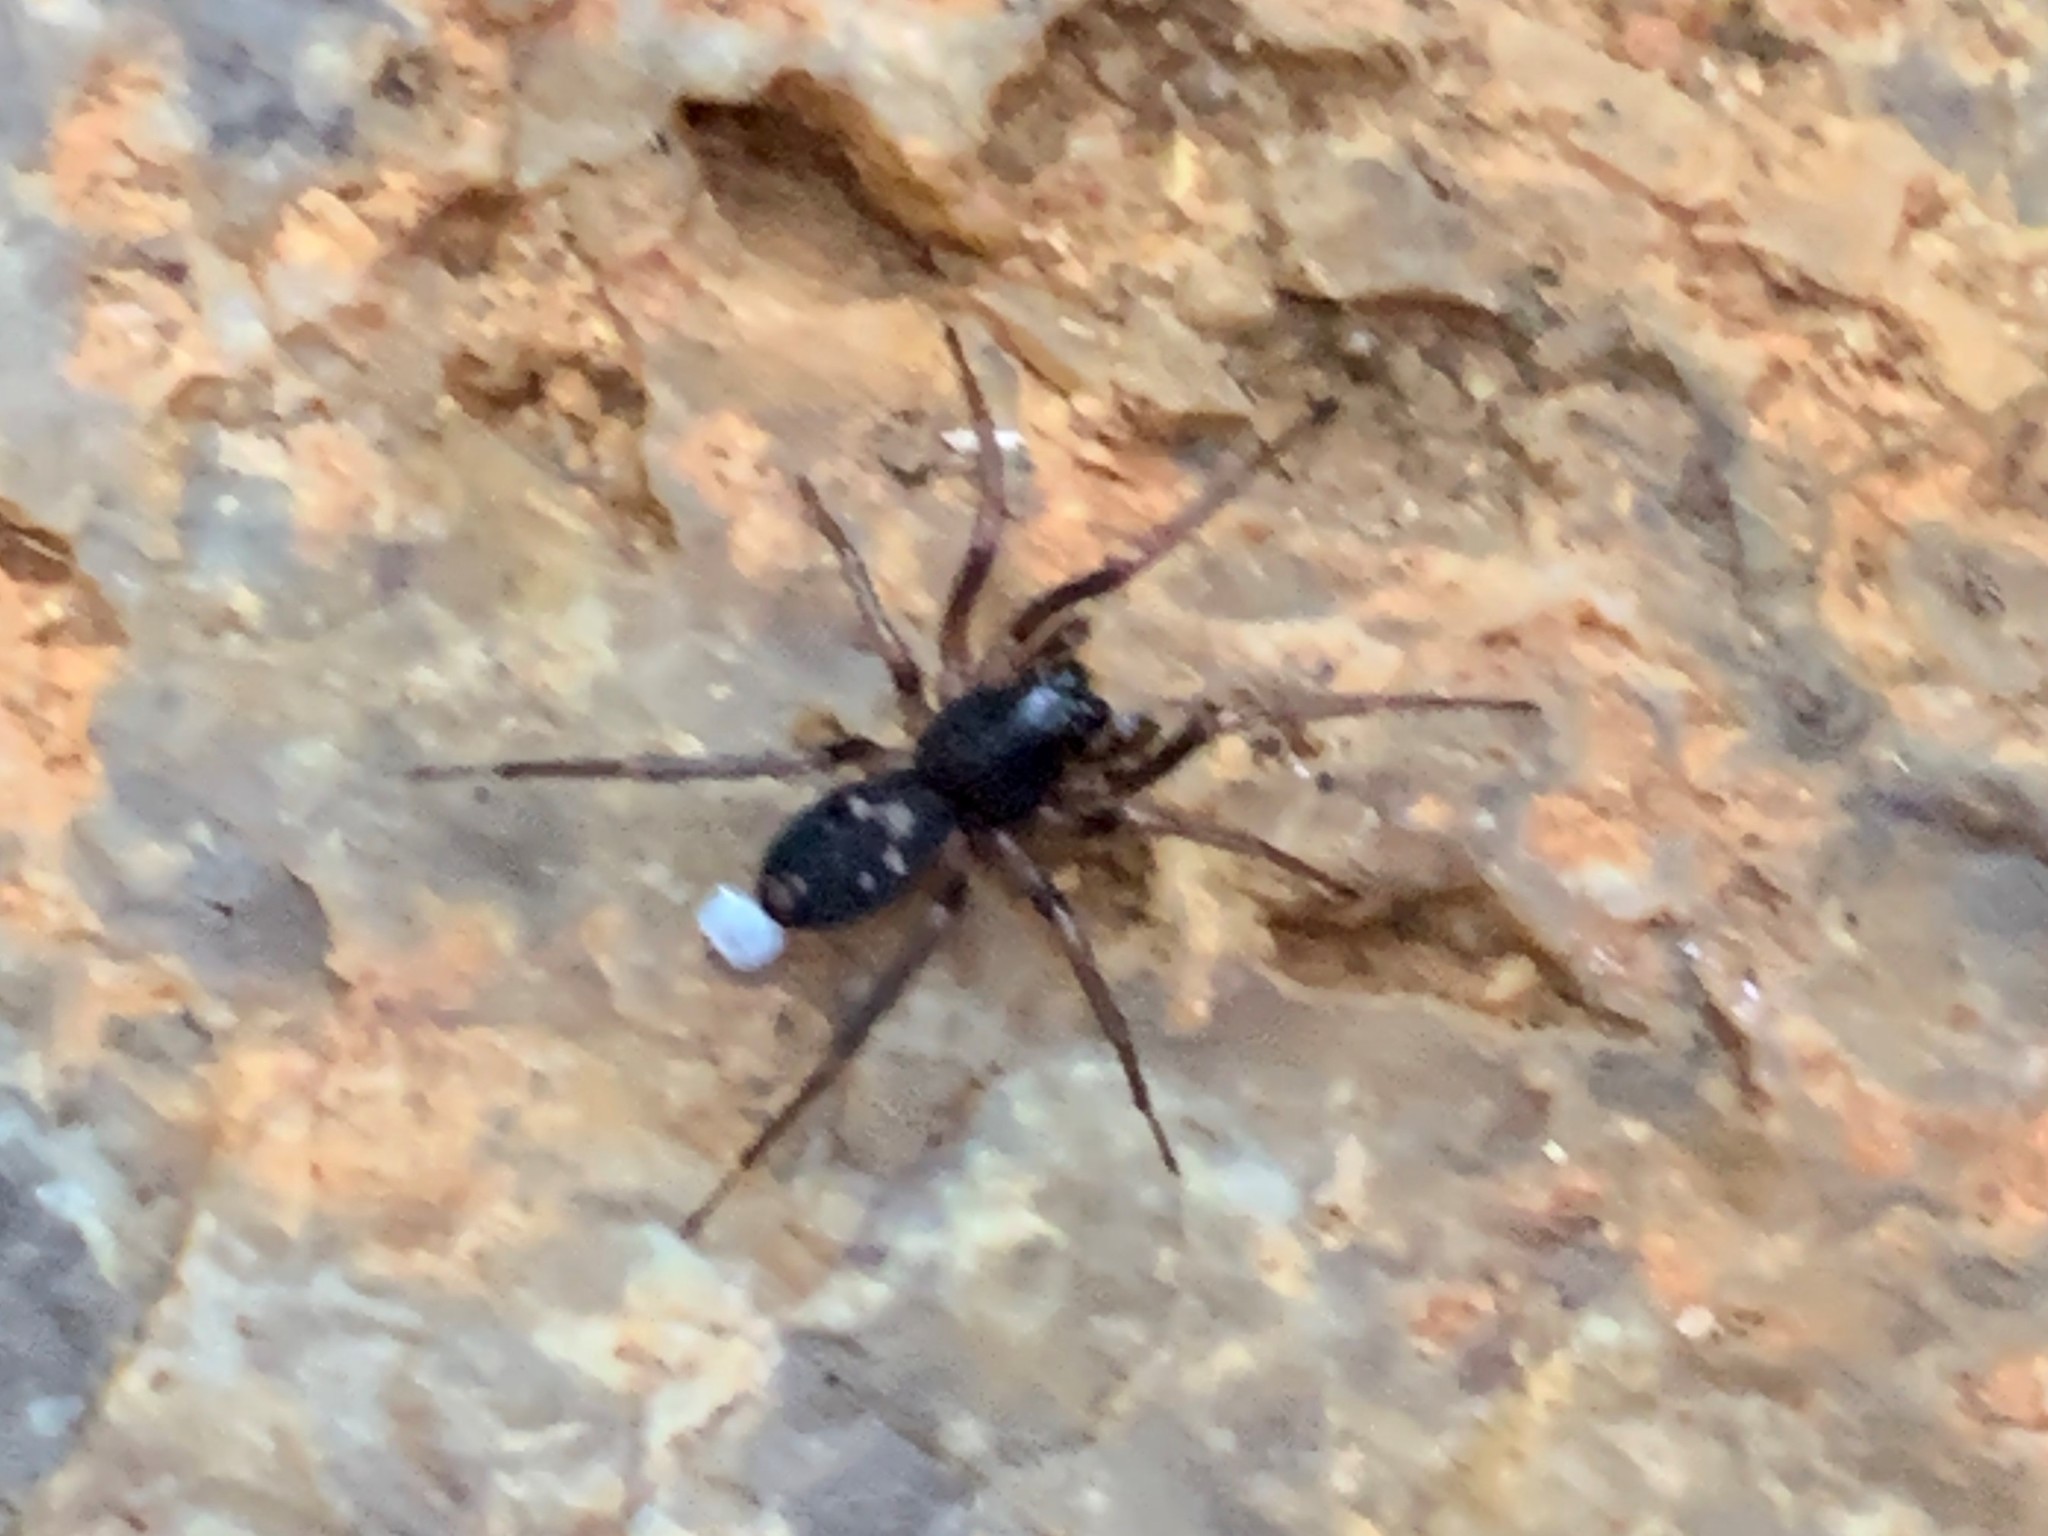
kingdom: Animalia
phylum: Arthropoda
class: Arachnida
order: Araneae
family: Corinnidae
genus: Falconina
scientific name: Falconina gracilis
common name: Antmimic spider
